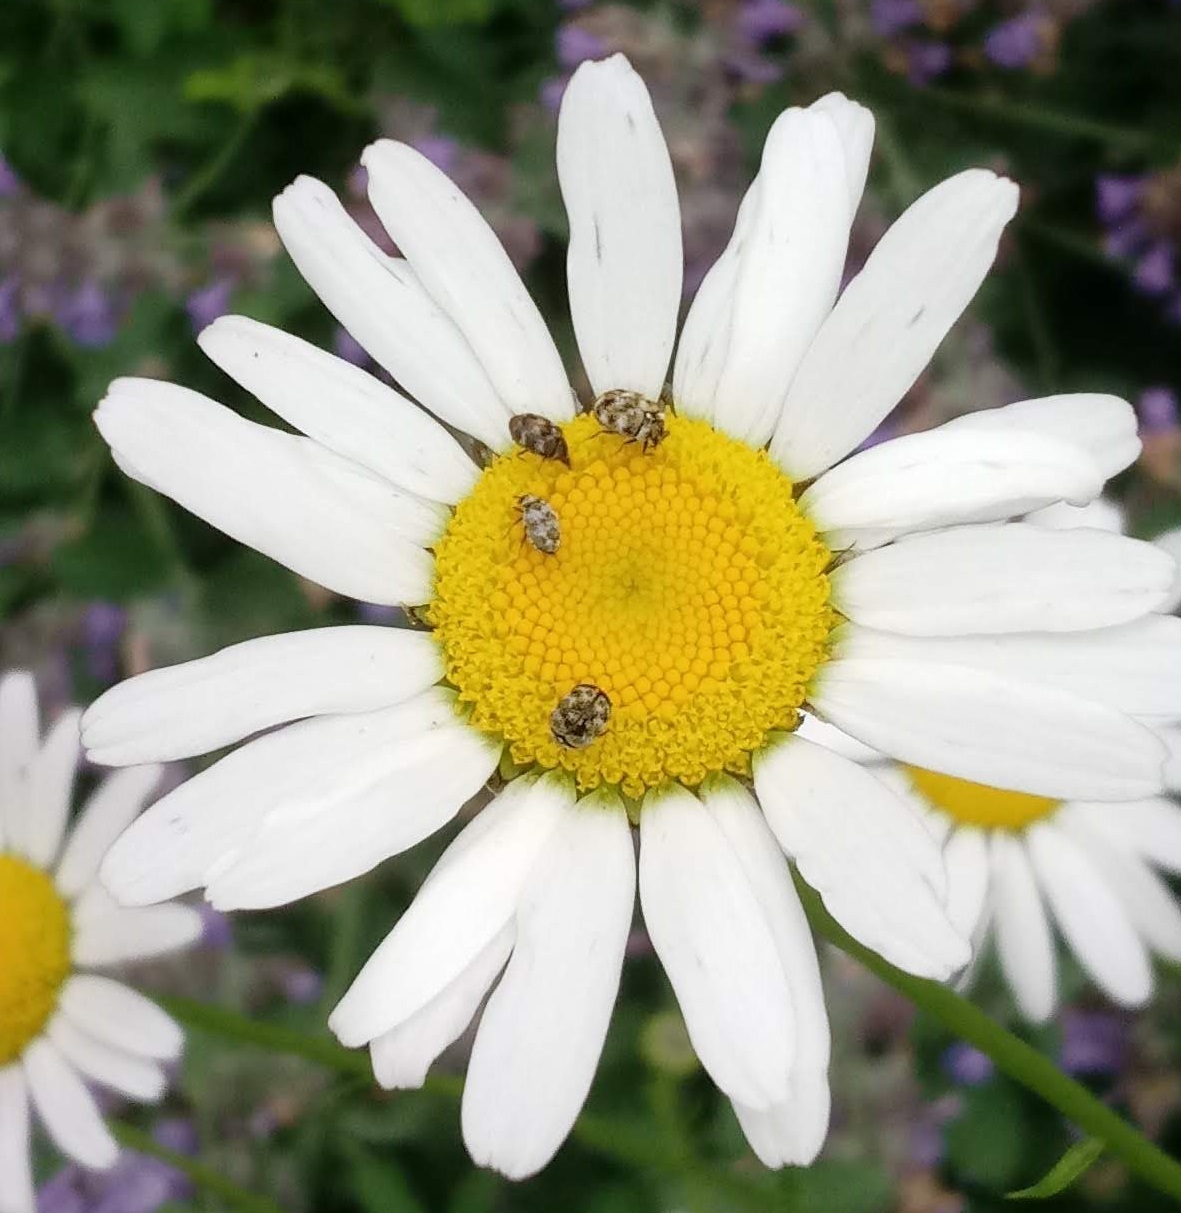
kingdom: Animalia
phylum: Arthropoda
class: Insecta
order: Coleoptera
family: Dermestidae
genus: Anthrenus
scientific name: Anthrenus verbasci
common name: Varied carpet beetle
